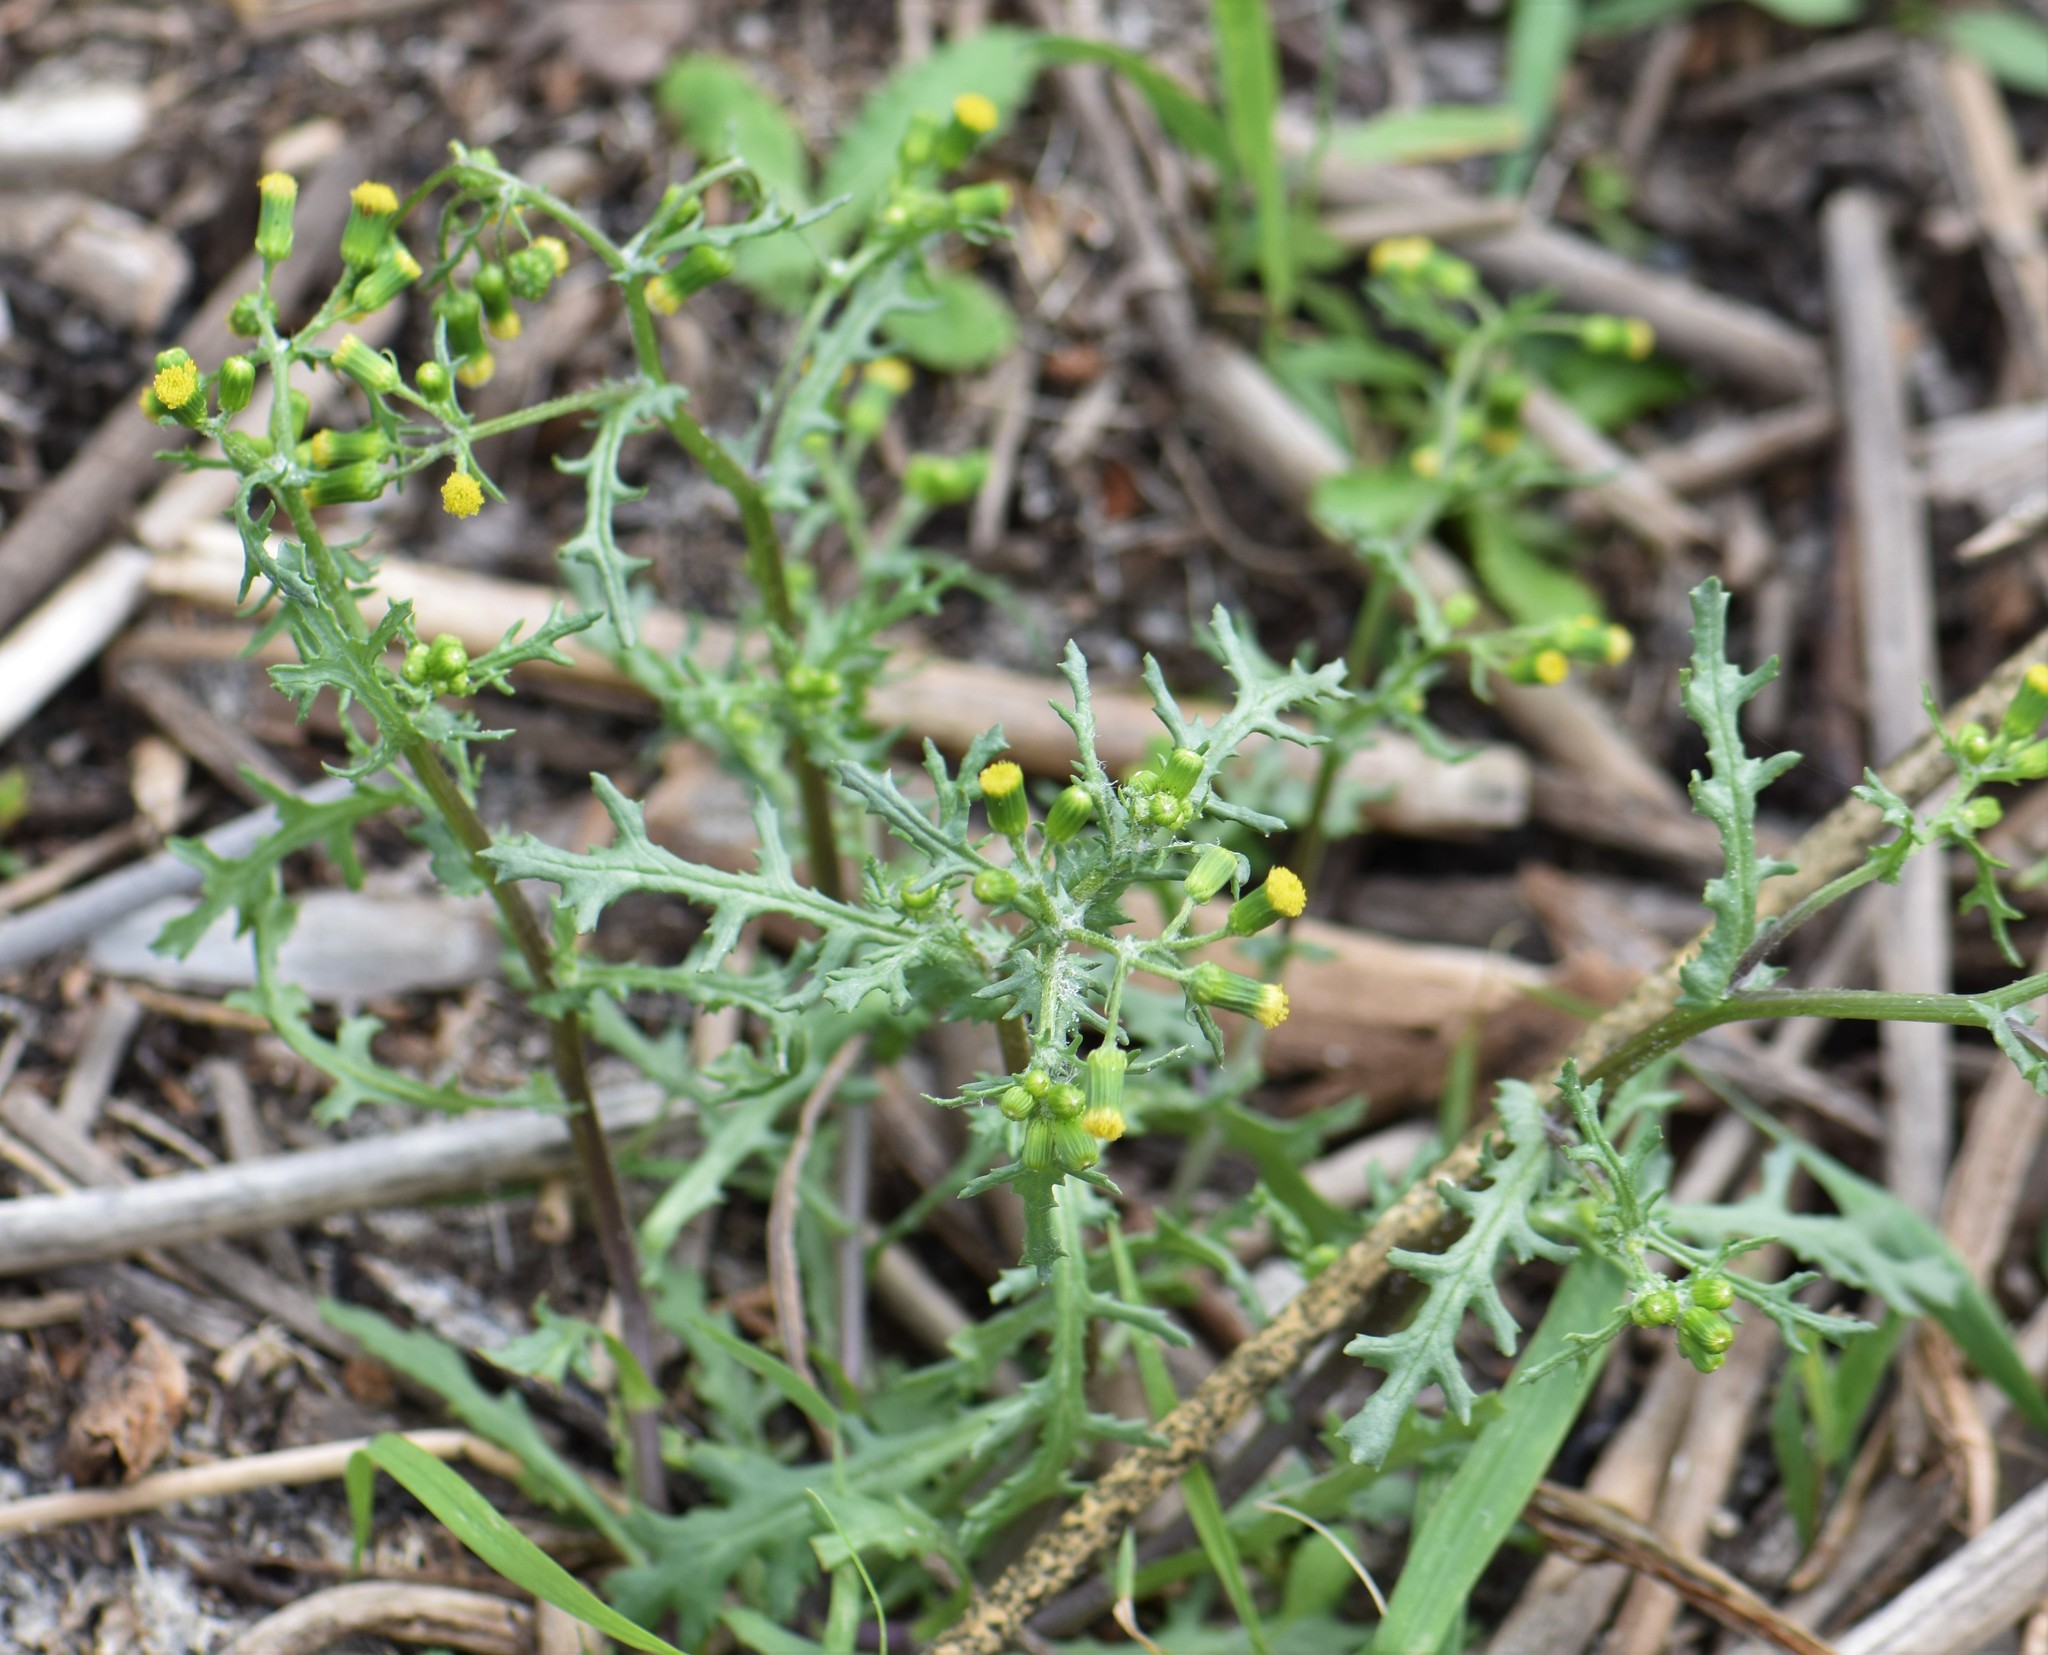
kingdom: Plantae
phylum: Tracheophyta
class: Magnoliopsida
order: Asterales
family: Asteraceae
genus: Senecio
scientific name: Senecio vulgaris
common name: Old-man-in-the-spring
